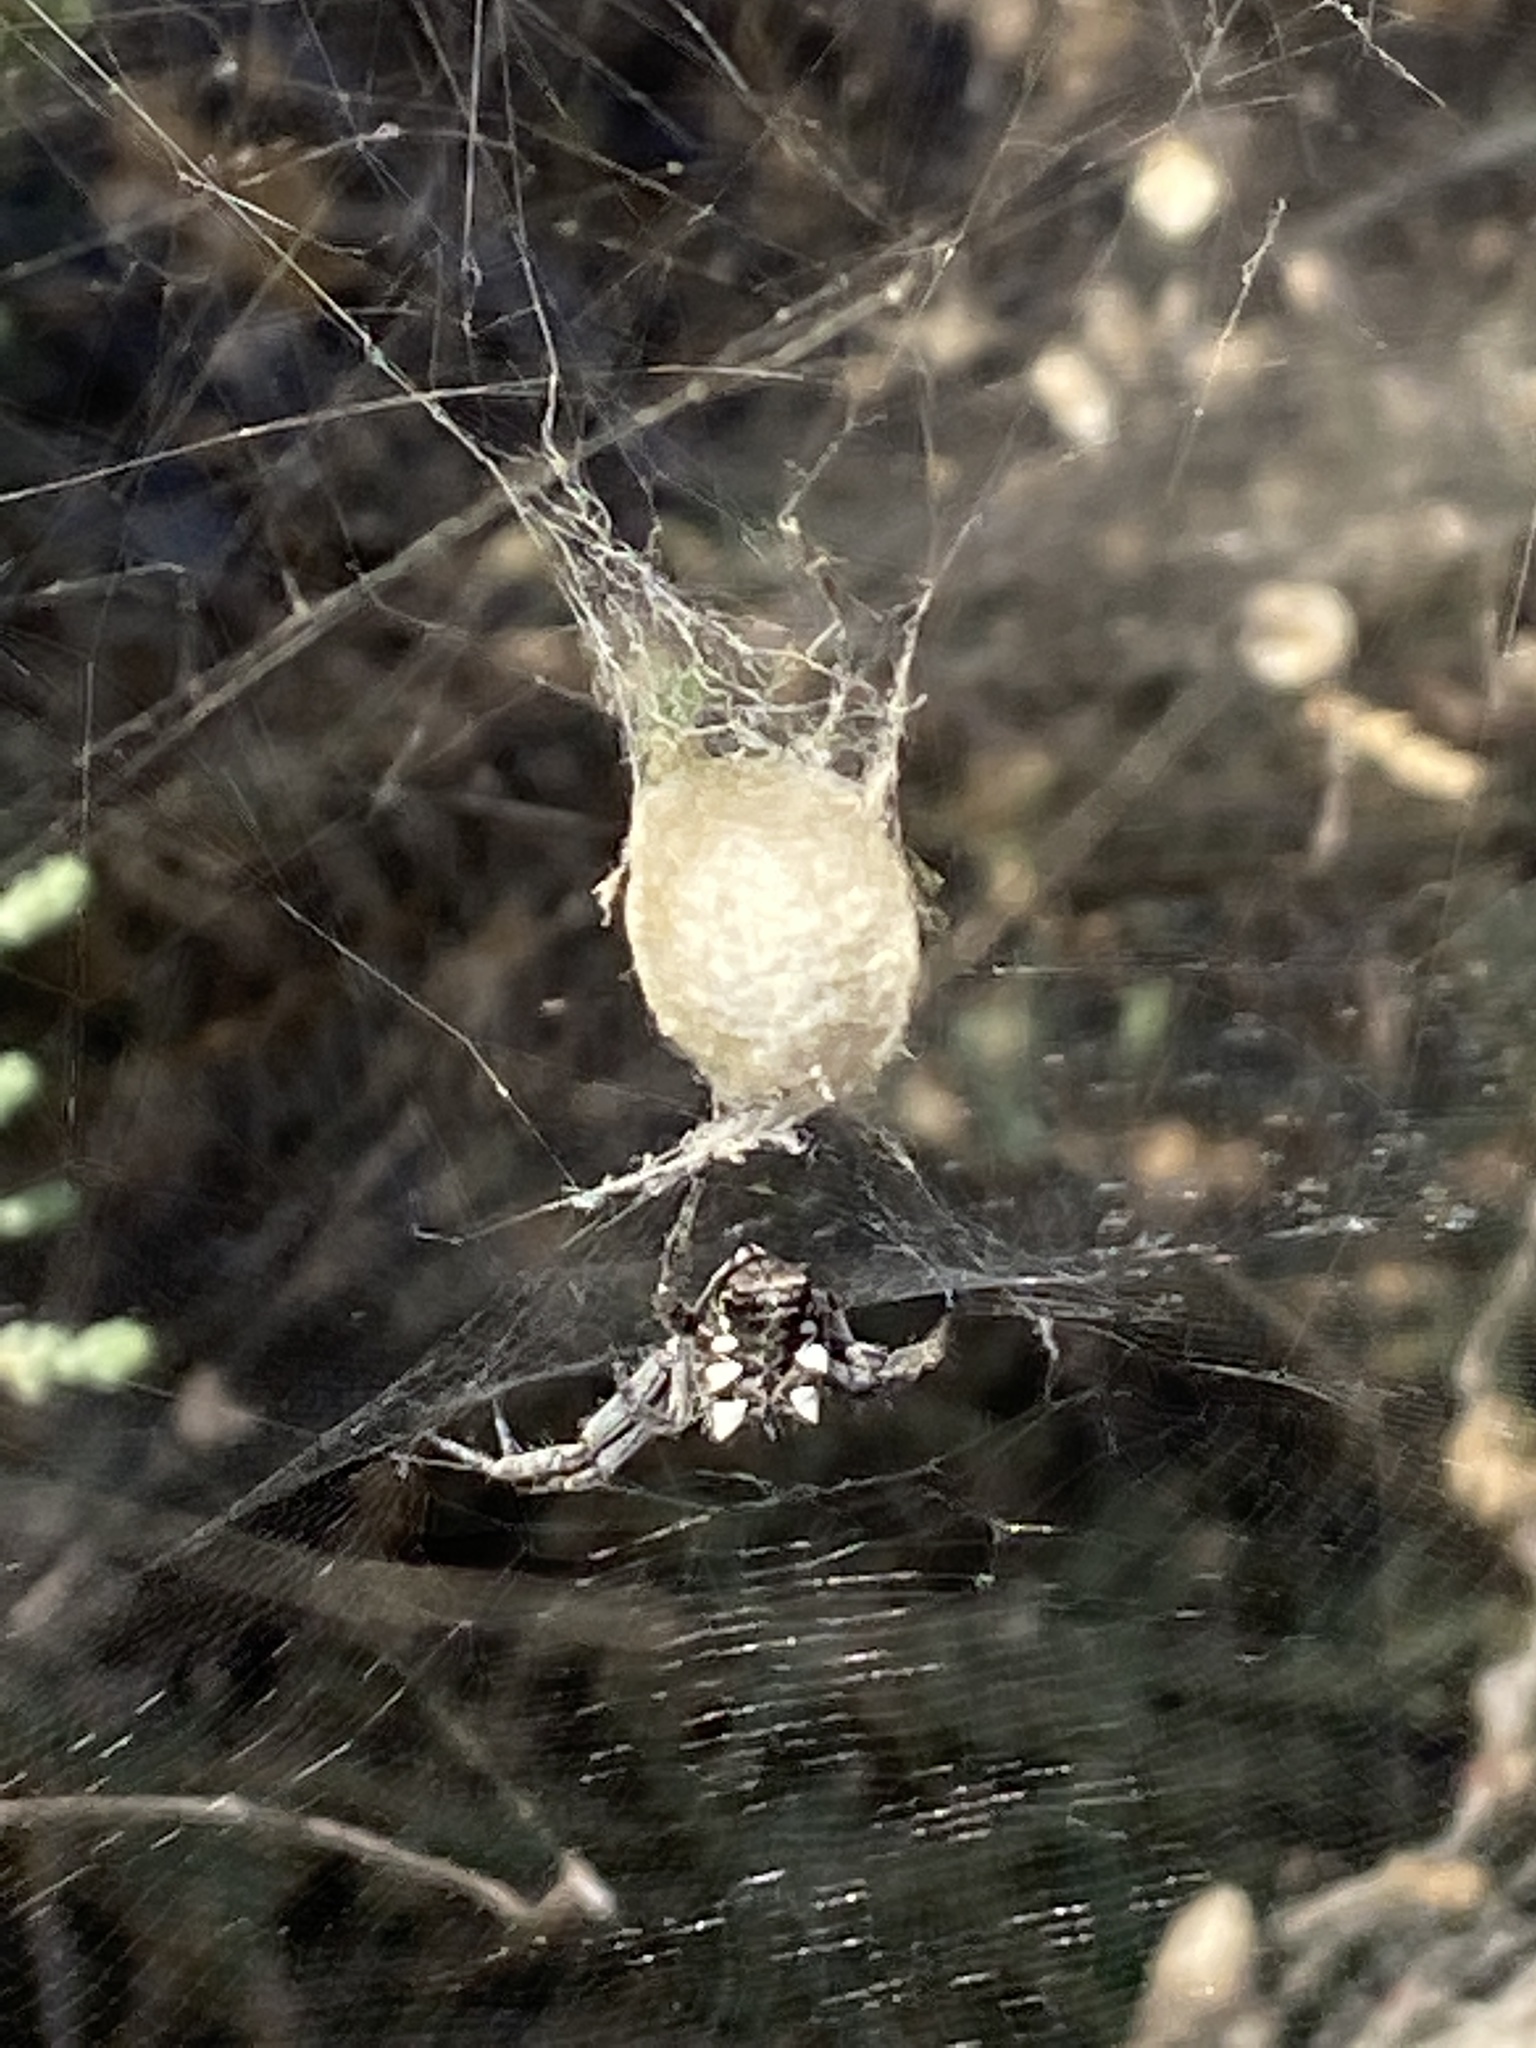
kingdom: Animalia
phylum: Arthropoda
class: Arachnida
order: Araneae
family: Araneidae
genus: Cyrtophora
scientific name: Cyrtophora citricola
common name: Orb weavers
